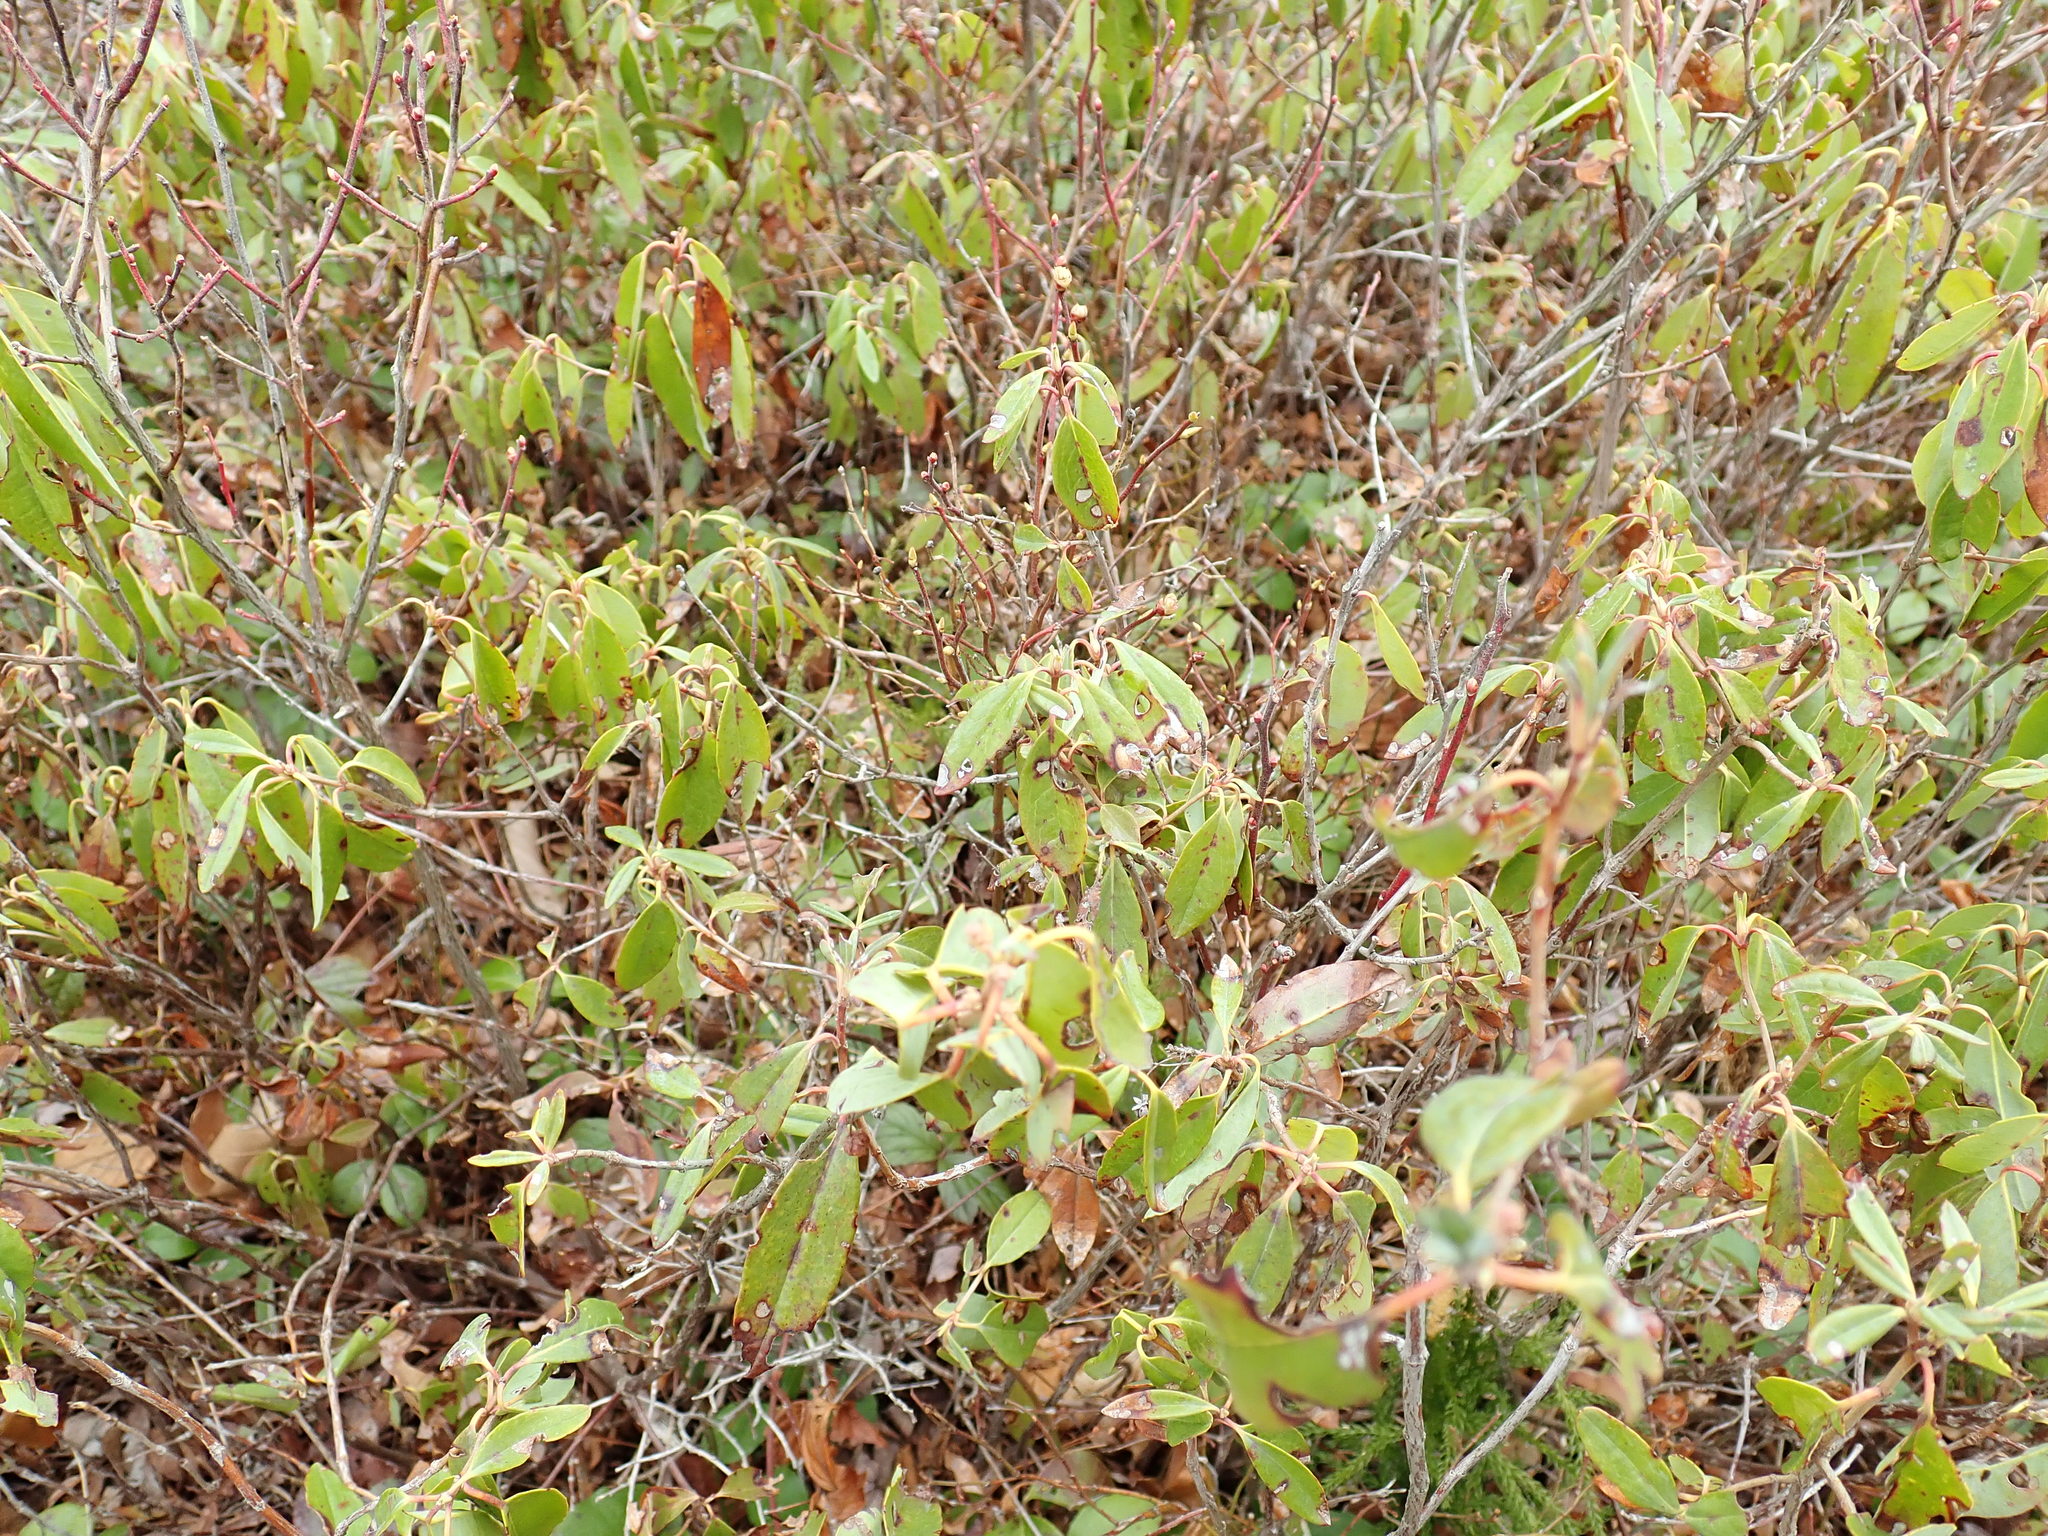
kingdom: Plantae
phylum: Tracheophyta
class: Magnoliopsida
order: Ericales
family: Ericaceae
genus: Kalmia
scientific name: Kalmia angustifolia
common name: Sheep-laurel
